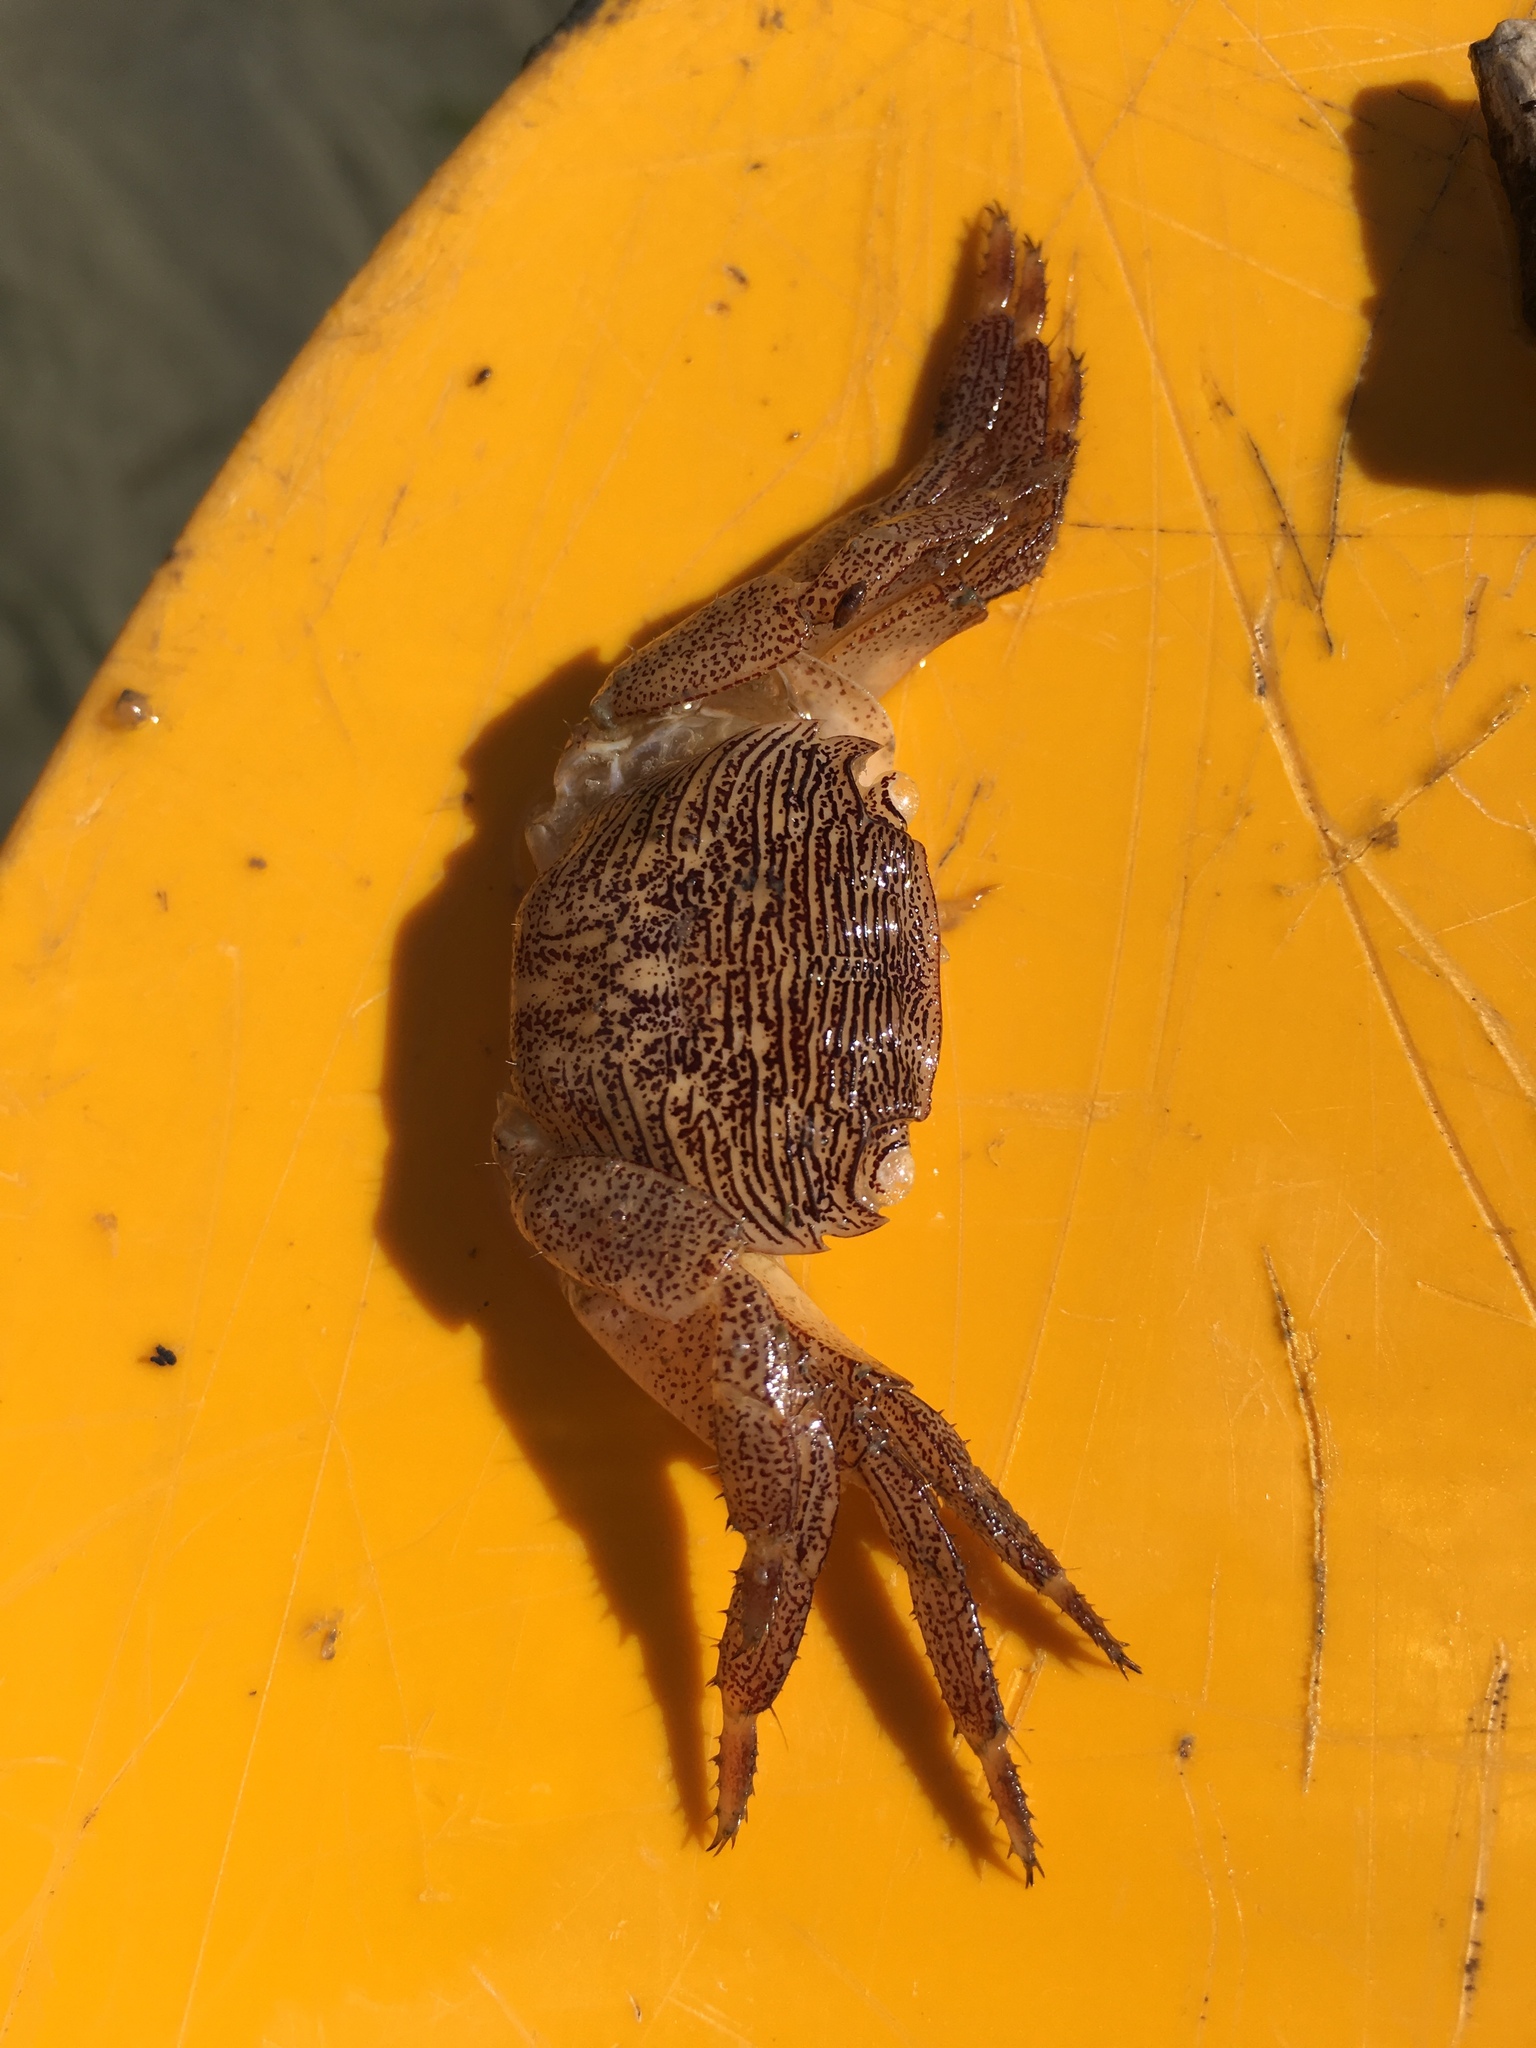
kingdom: Animalia
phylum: Arthropoda
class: Malacostraca
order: Decapoda
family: Grapsidae
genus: Pachygrapsus
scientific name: Pachygrapsus crassipes
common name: Striped shore crab
